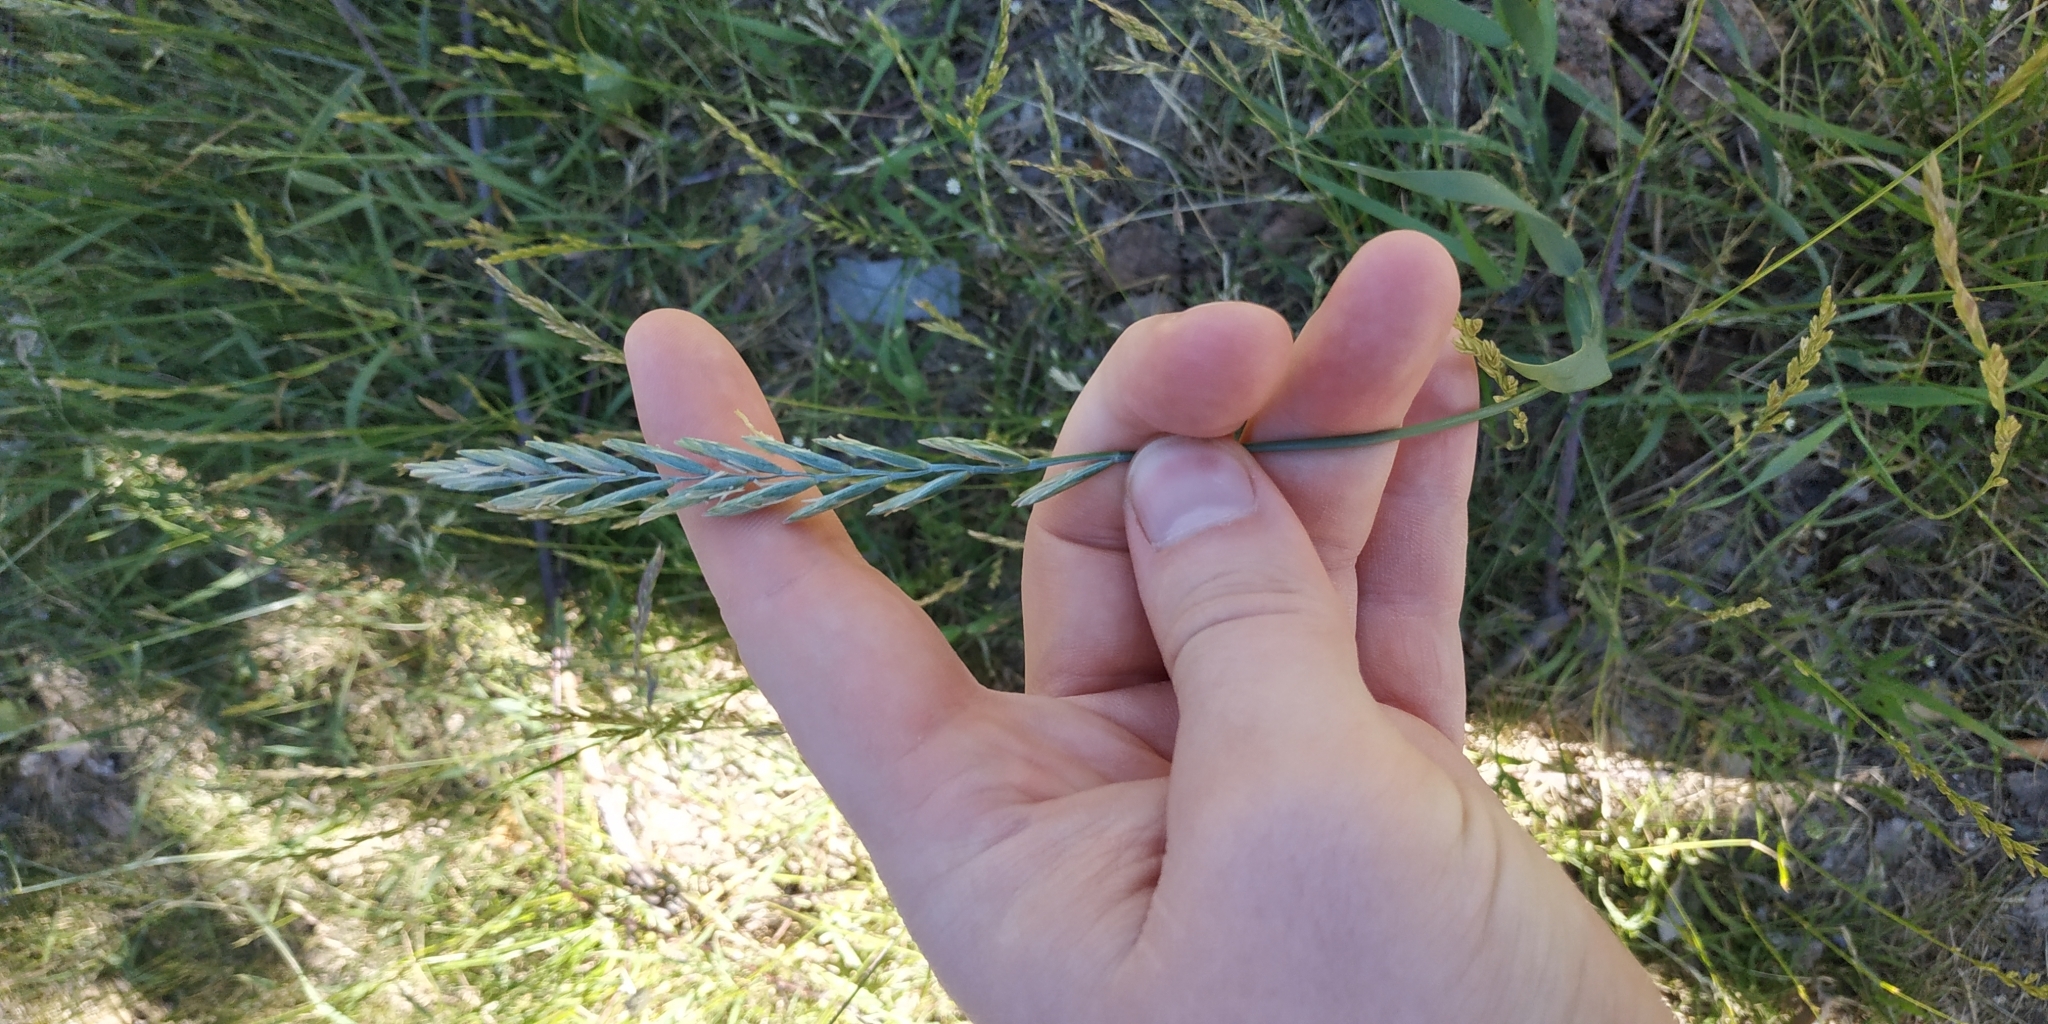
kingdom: Plantae
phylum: Tracheophyta
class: Liliopsida
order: Poales
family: Poaceae
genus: Elymus
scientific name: Elymus repens
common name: Quackgrass
